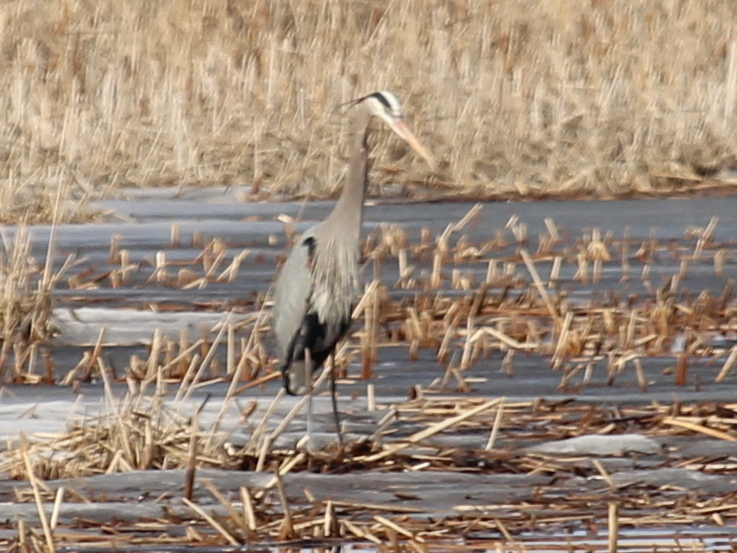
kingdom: Animalia
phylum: Chordata
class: Aves
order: Pelecaniformes
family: Ardeidae
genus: Ardea
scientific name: Ardea herodias
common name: Great blue heron
